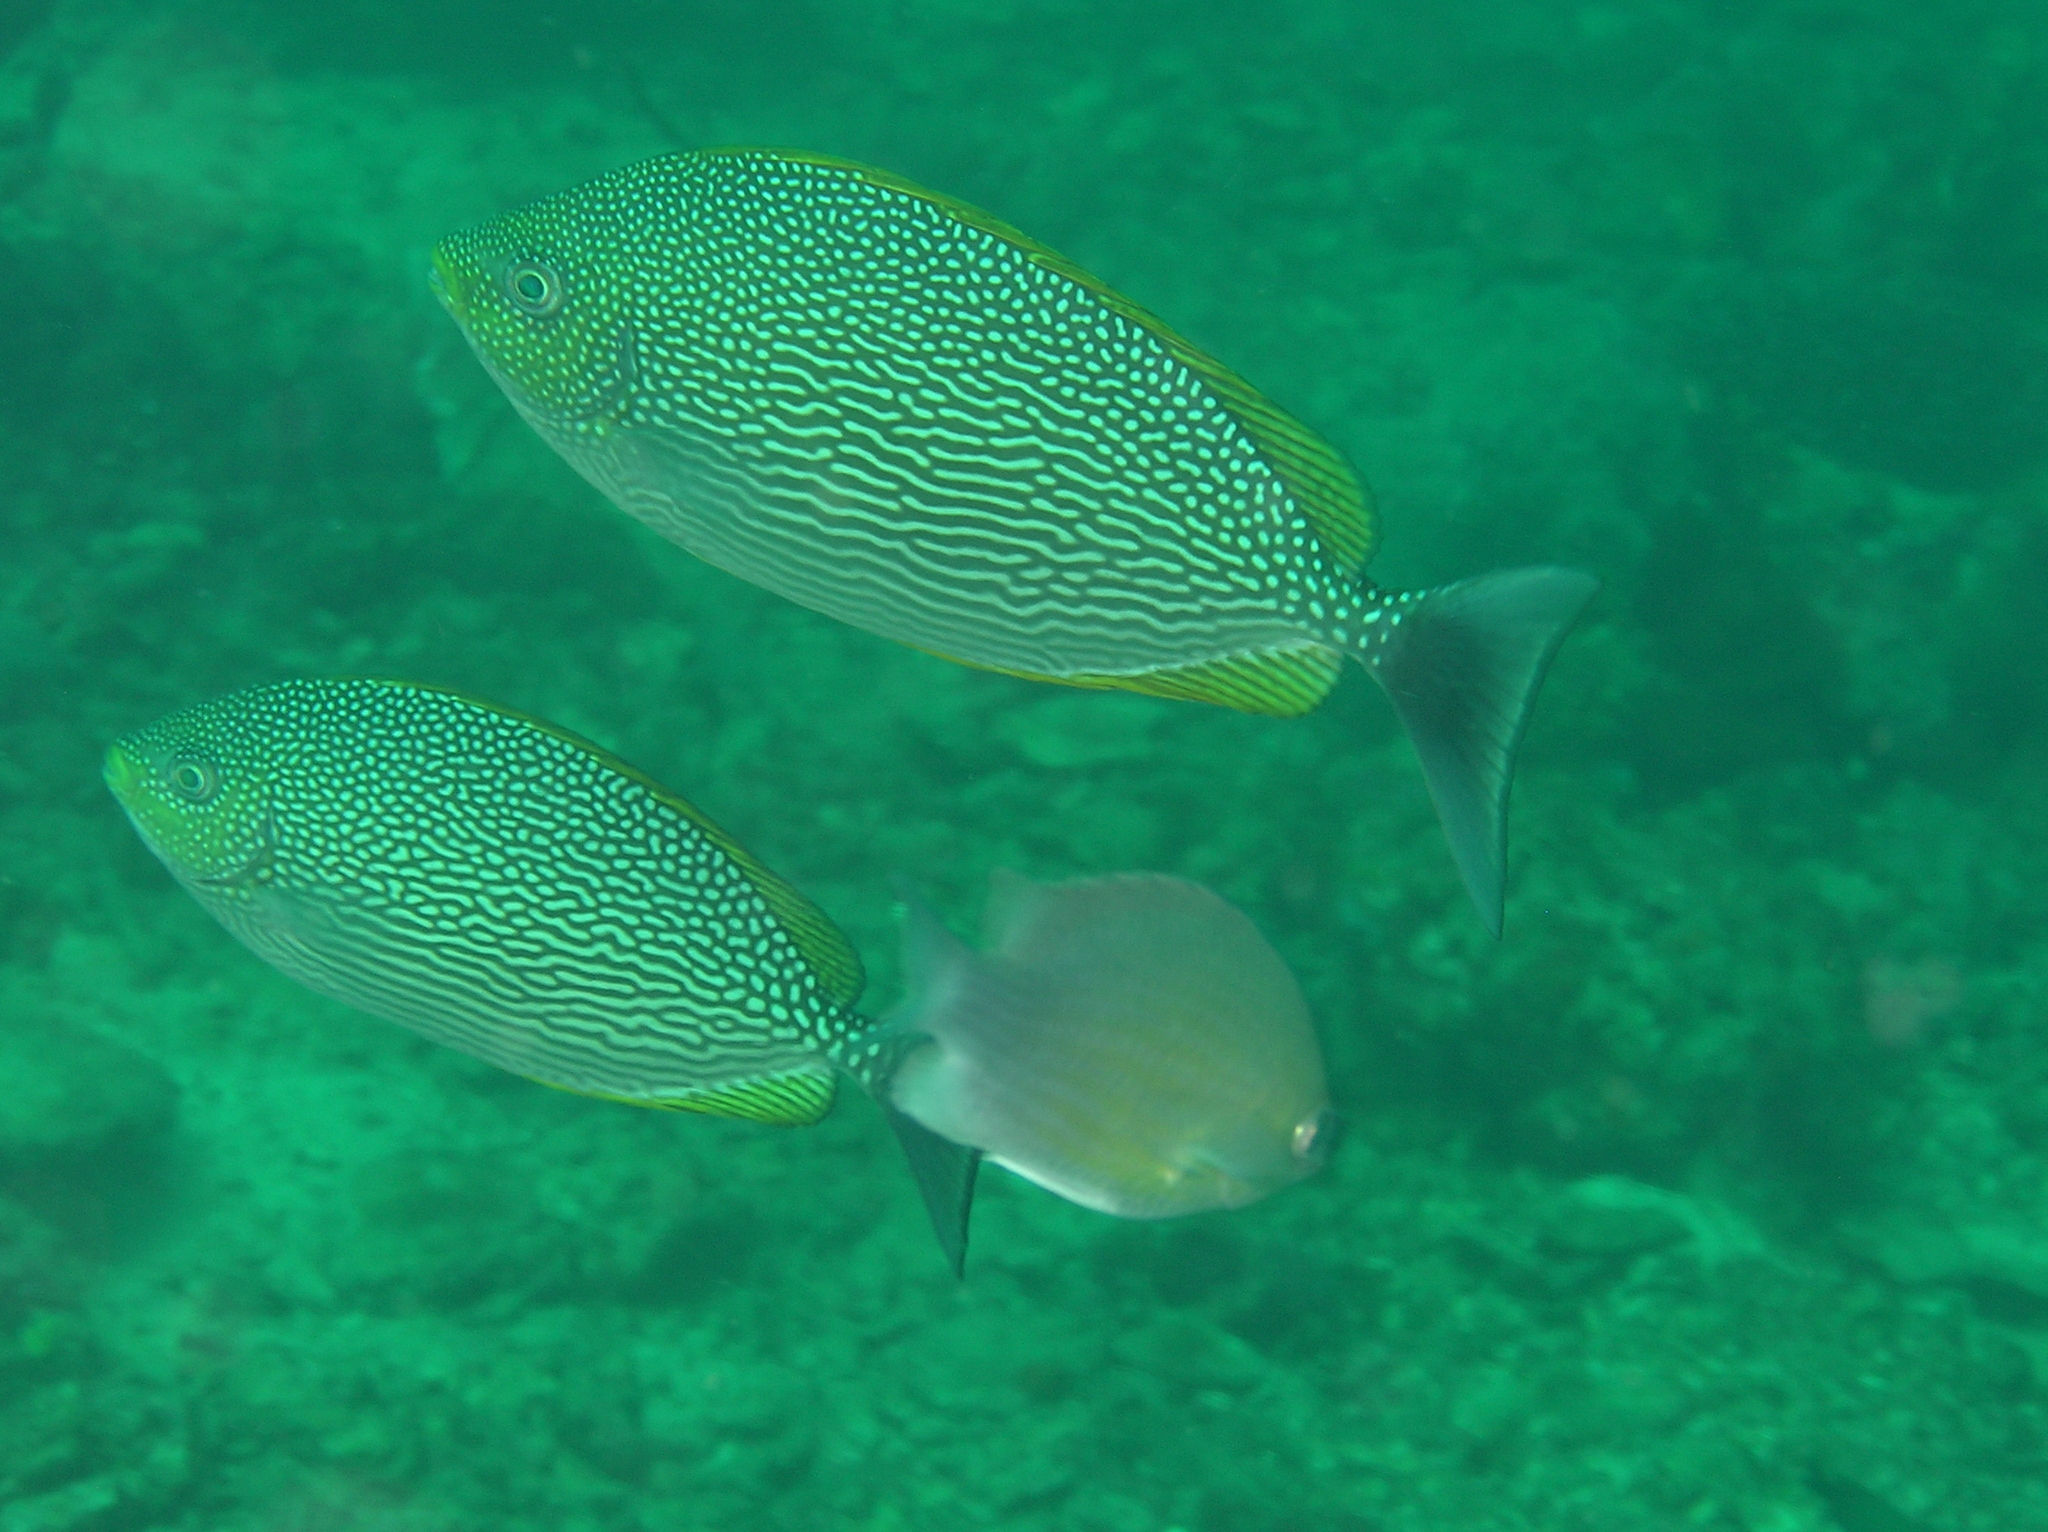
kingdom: Animalia
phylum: Chordata
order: Perciformes
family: Siganidae
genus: Siganus
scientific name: Siganus javus
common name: Java rabbitfish
